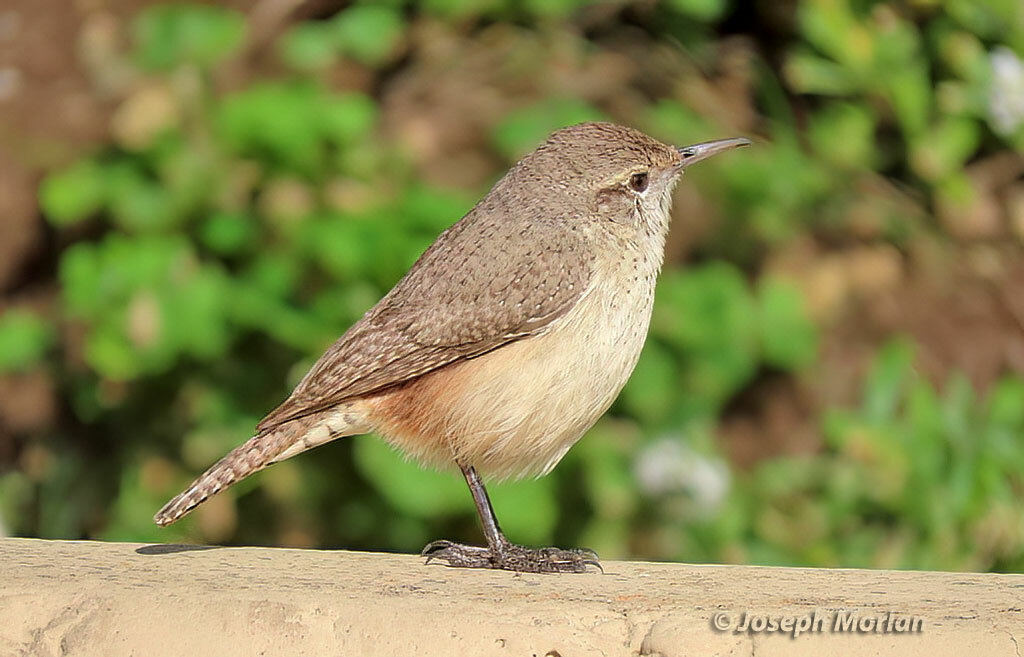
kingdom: Animalia
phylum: Chordata
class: Aves
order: Passeriformes
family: Troglodytidae
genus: Salpinctes
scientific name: Salpinctes obsoletus
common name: Rock wren
